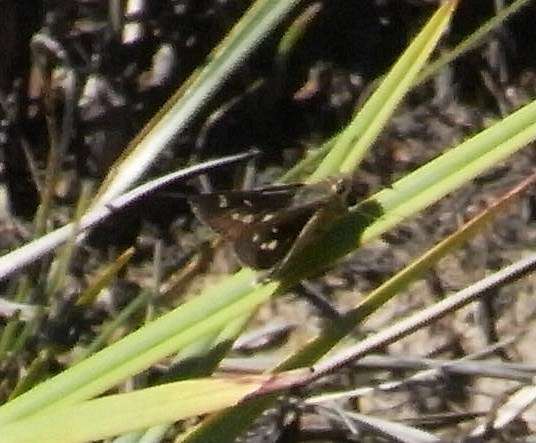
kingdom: Animalia
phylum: Arthropoda
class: Insecta
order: Lepidoptera
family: Hesperiidae
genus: Trapezites
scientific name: Trapezites lutea
